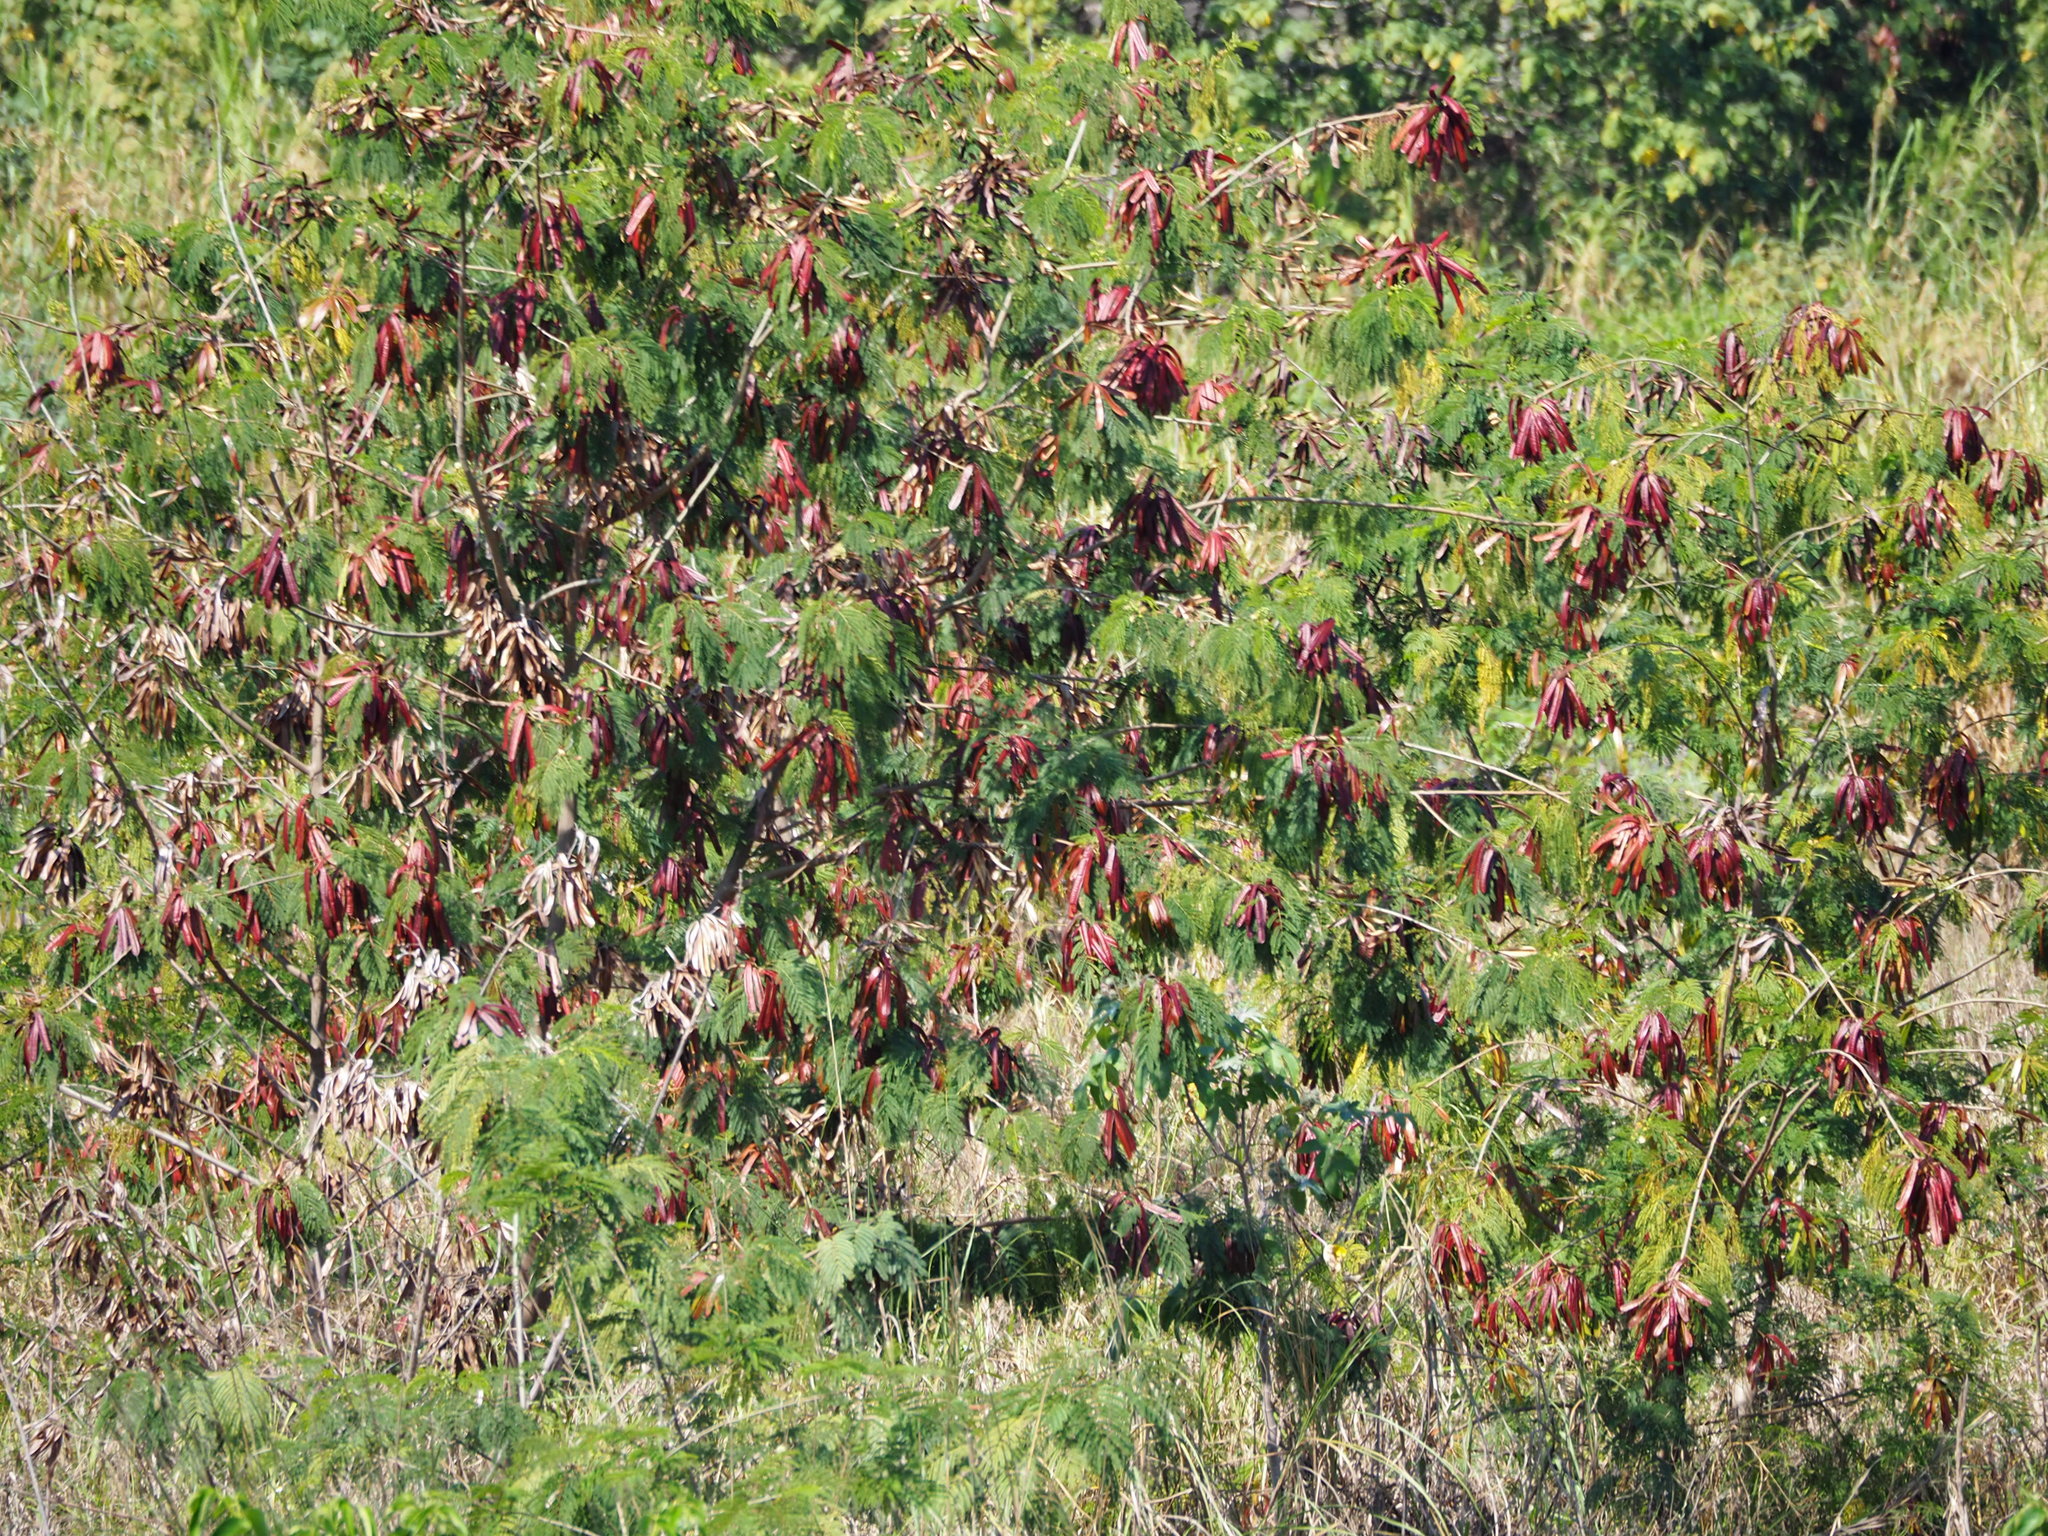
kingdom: Plantae
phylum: Tracheophyta
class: Magnoliopsida
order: Fabales
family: Fabaceae
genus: Leucaena
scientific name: Leucaena leucocephala
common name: White leadtree
